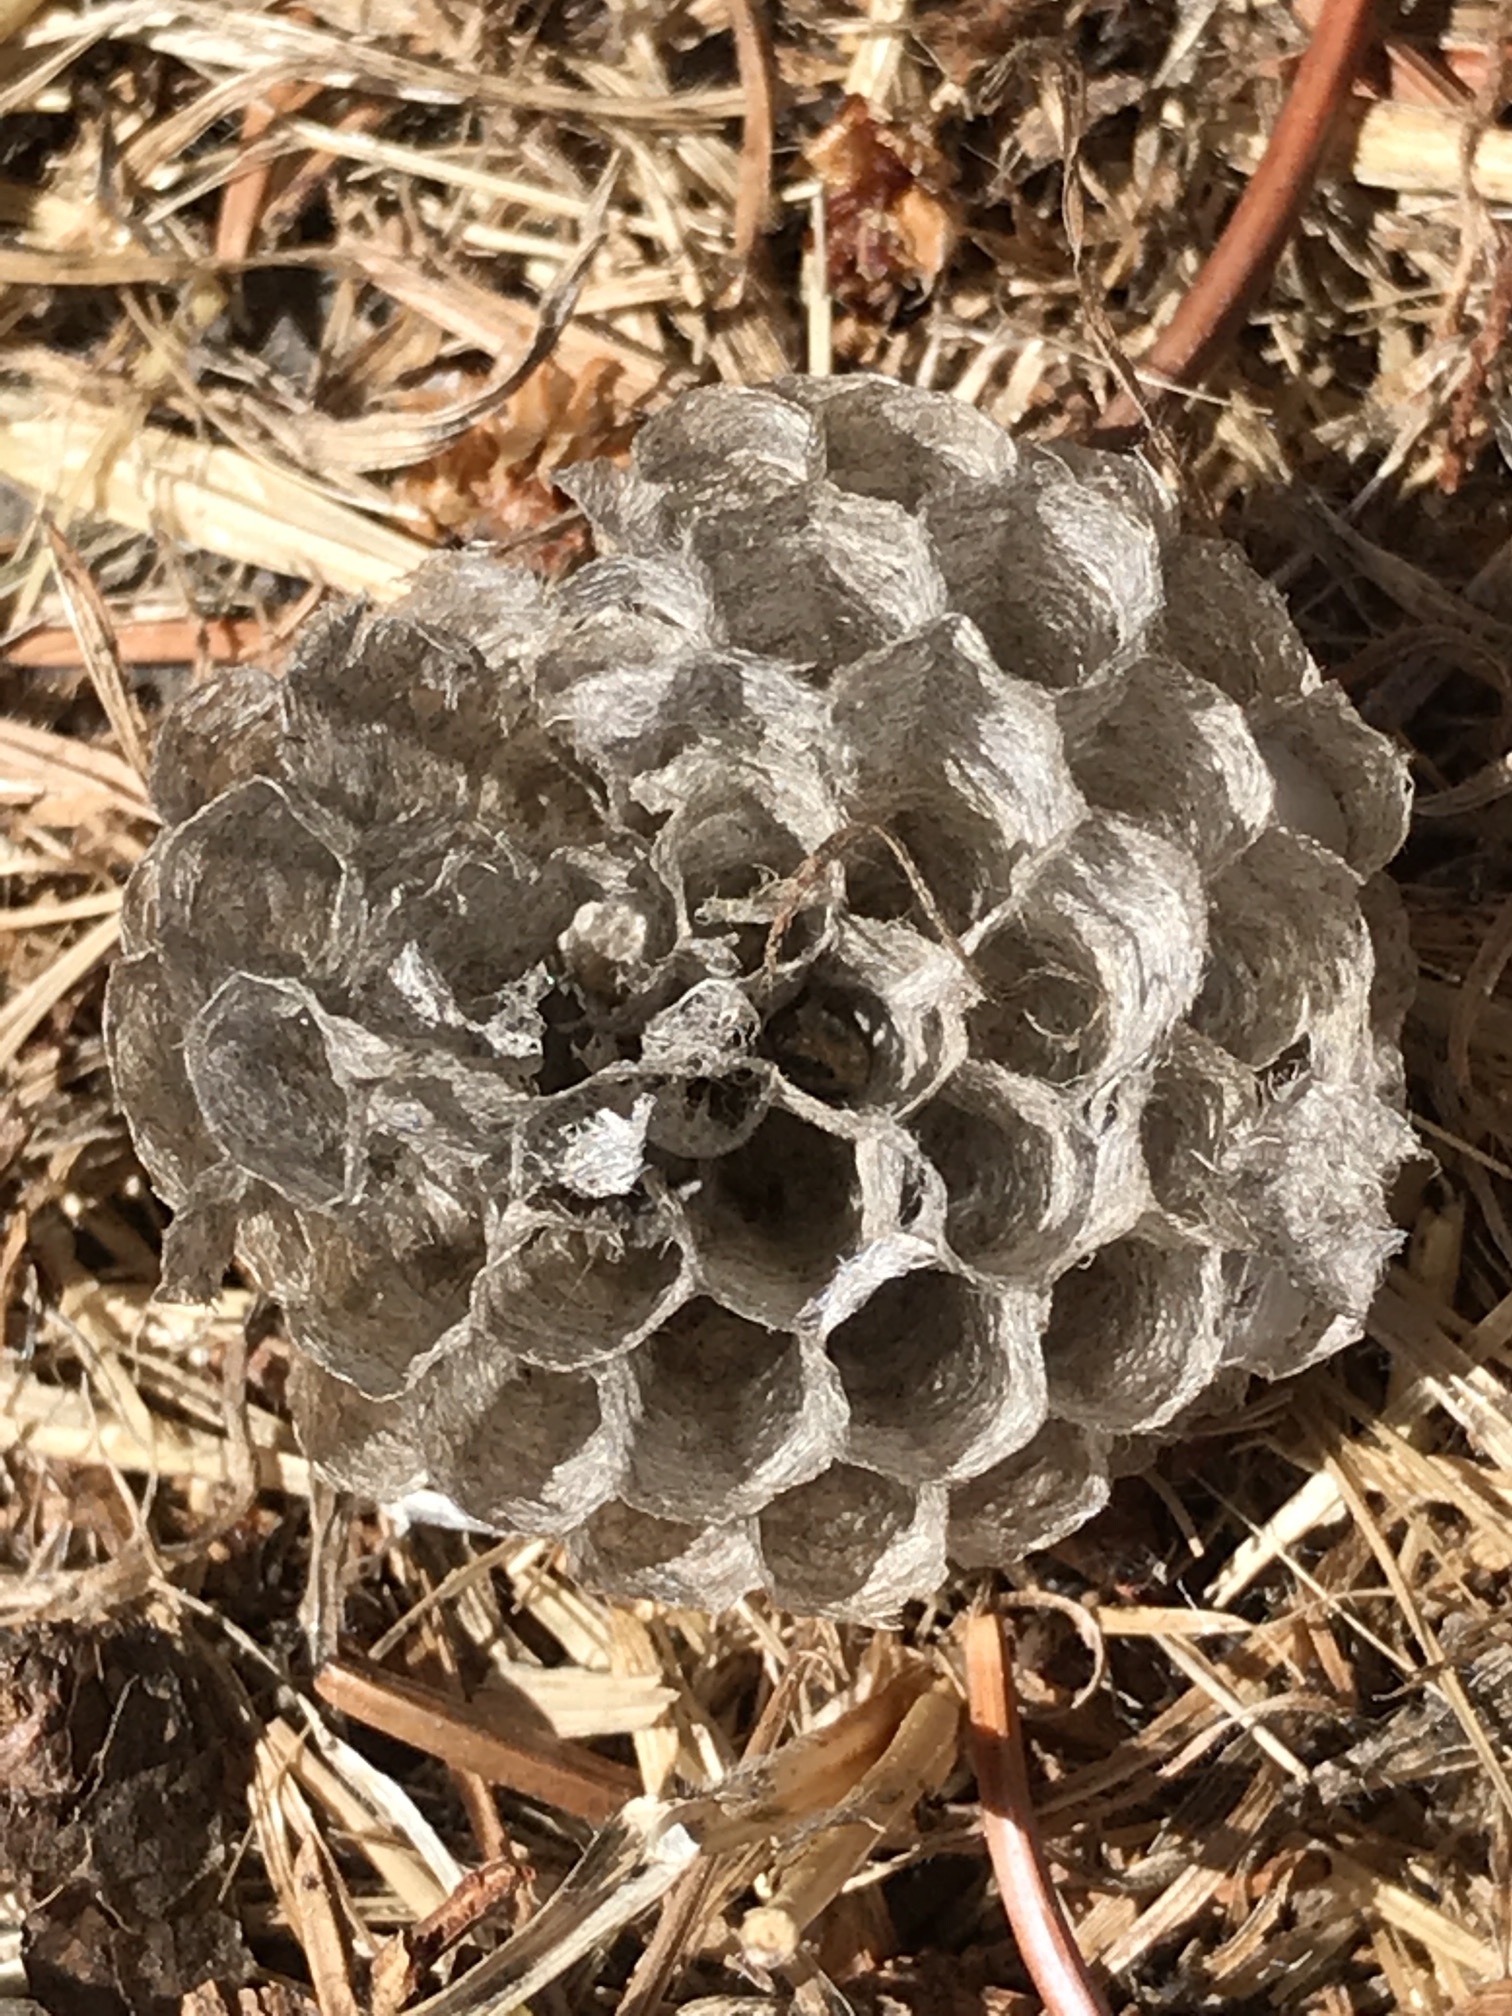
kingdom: Animalia
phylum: Arthropoda
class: Insecta
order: Hymenoptera
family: Eumenidae
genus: Polistes
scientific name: Polistes
